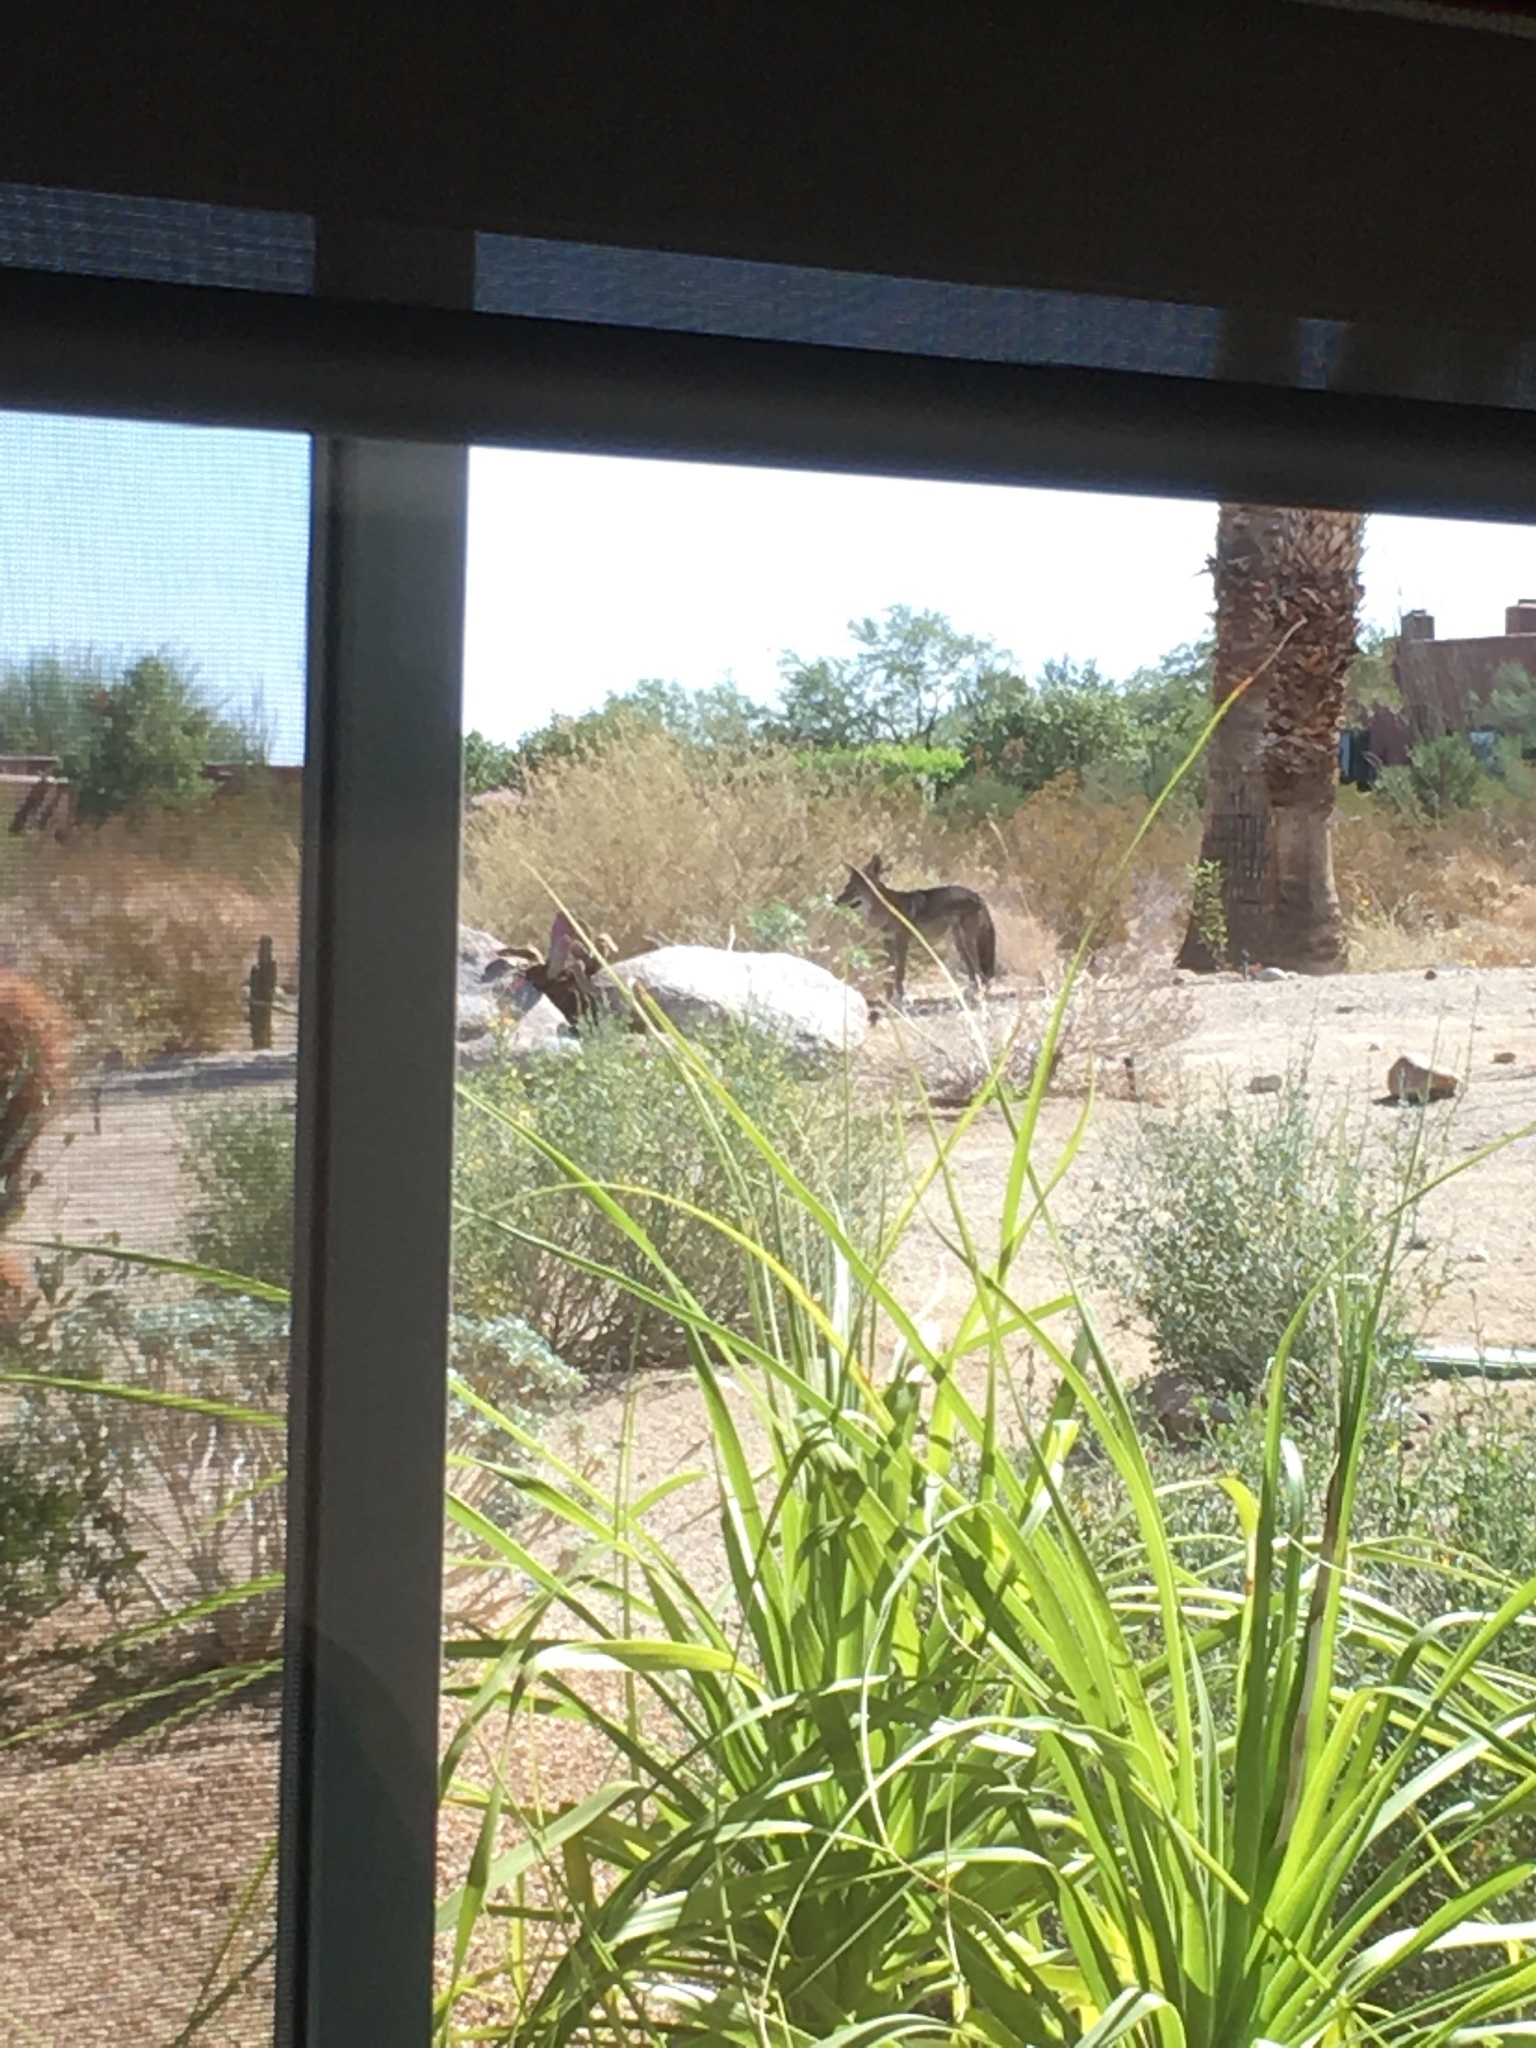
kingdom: Animalia
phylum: Chordata
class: Mammalia
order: Carnivora
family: Canidae
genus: Canis
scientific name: Canis latrans
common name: Coyote
